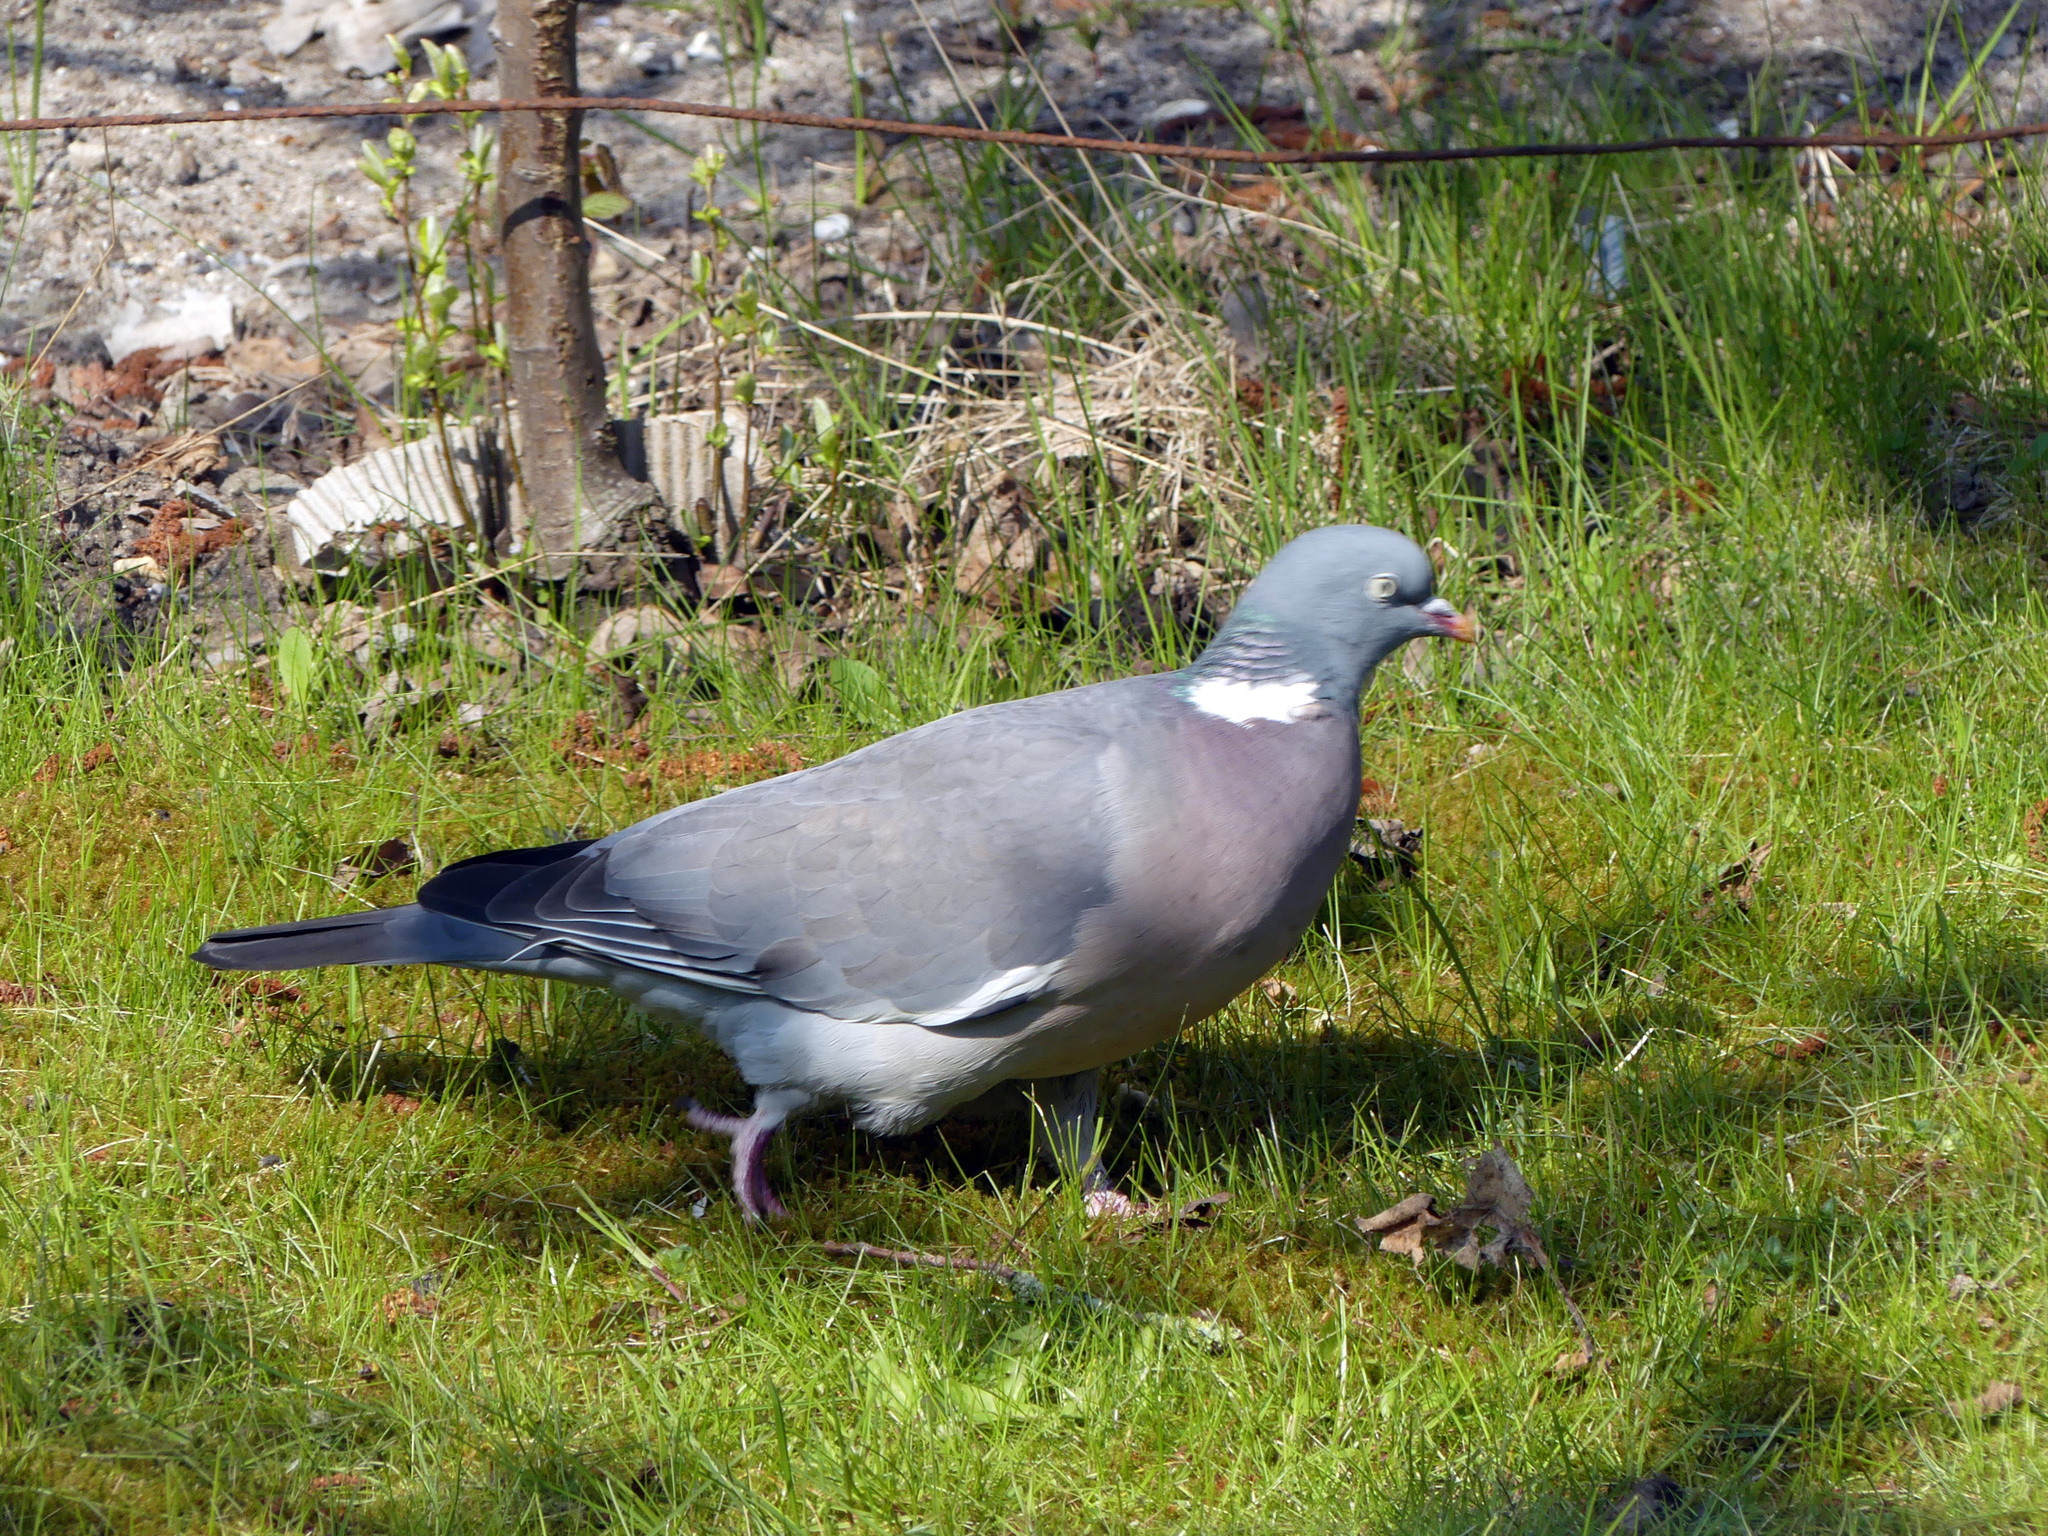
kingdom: Animalia
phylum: Chordata
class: Aves
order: Columbiformes
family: Columbidae
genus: Columba
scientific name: Columba palumbus
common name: Common wood pigeon
